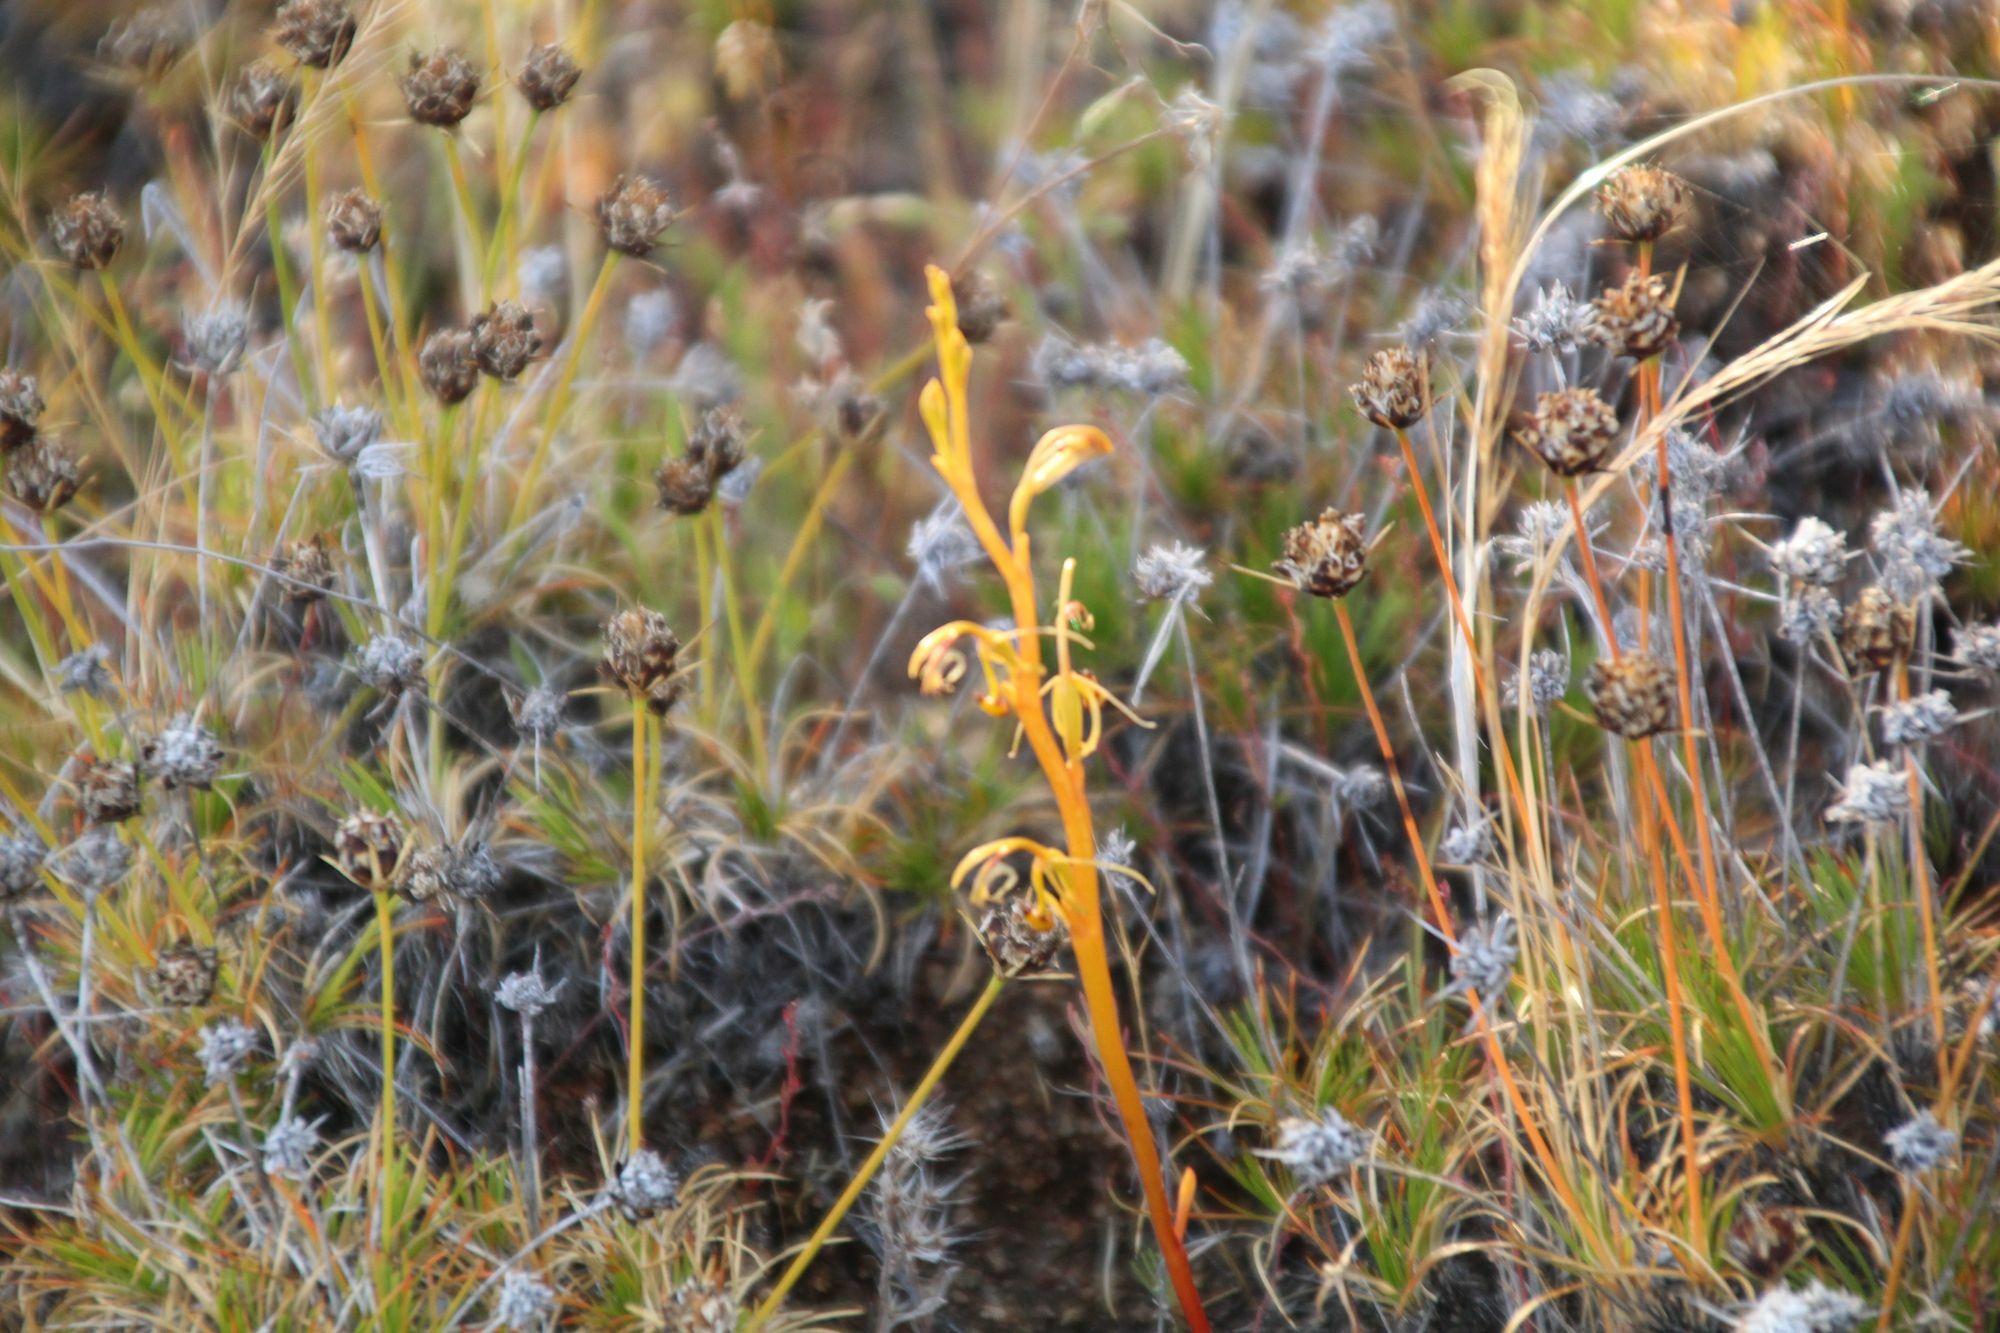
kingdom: Plantae
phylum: Tracheophyta
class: Liliopsida
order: Asparagales
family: Orchidaceae
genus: Spiculaea
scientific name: Spiculaea ciliata
